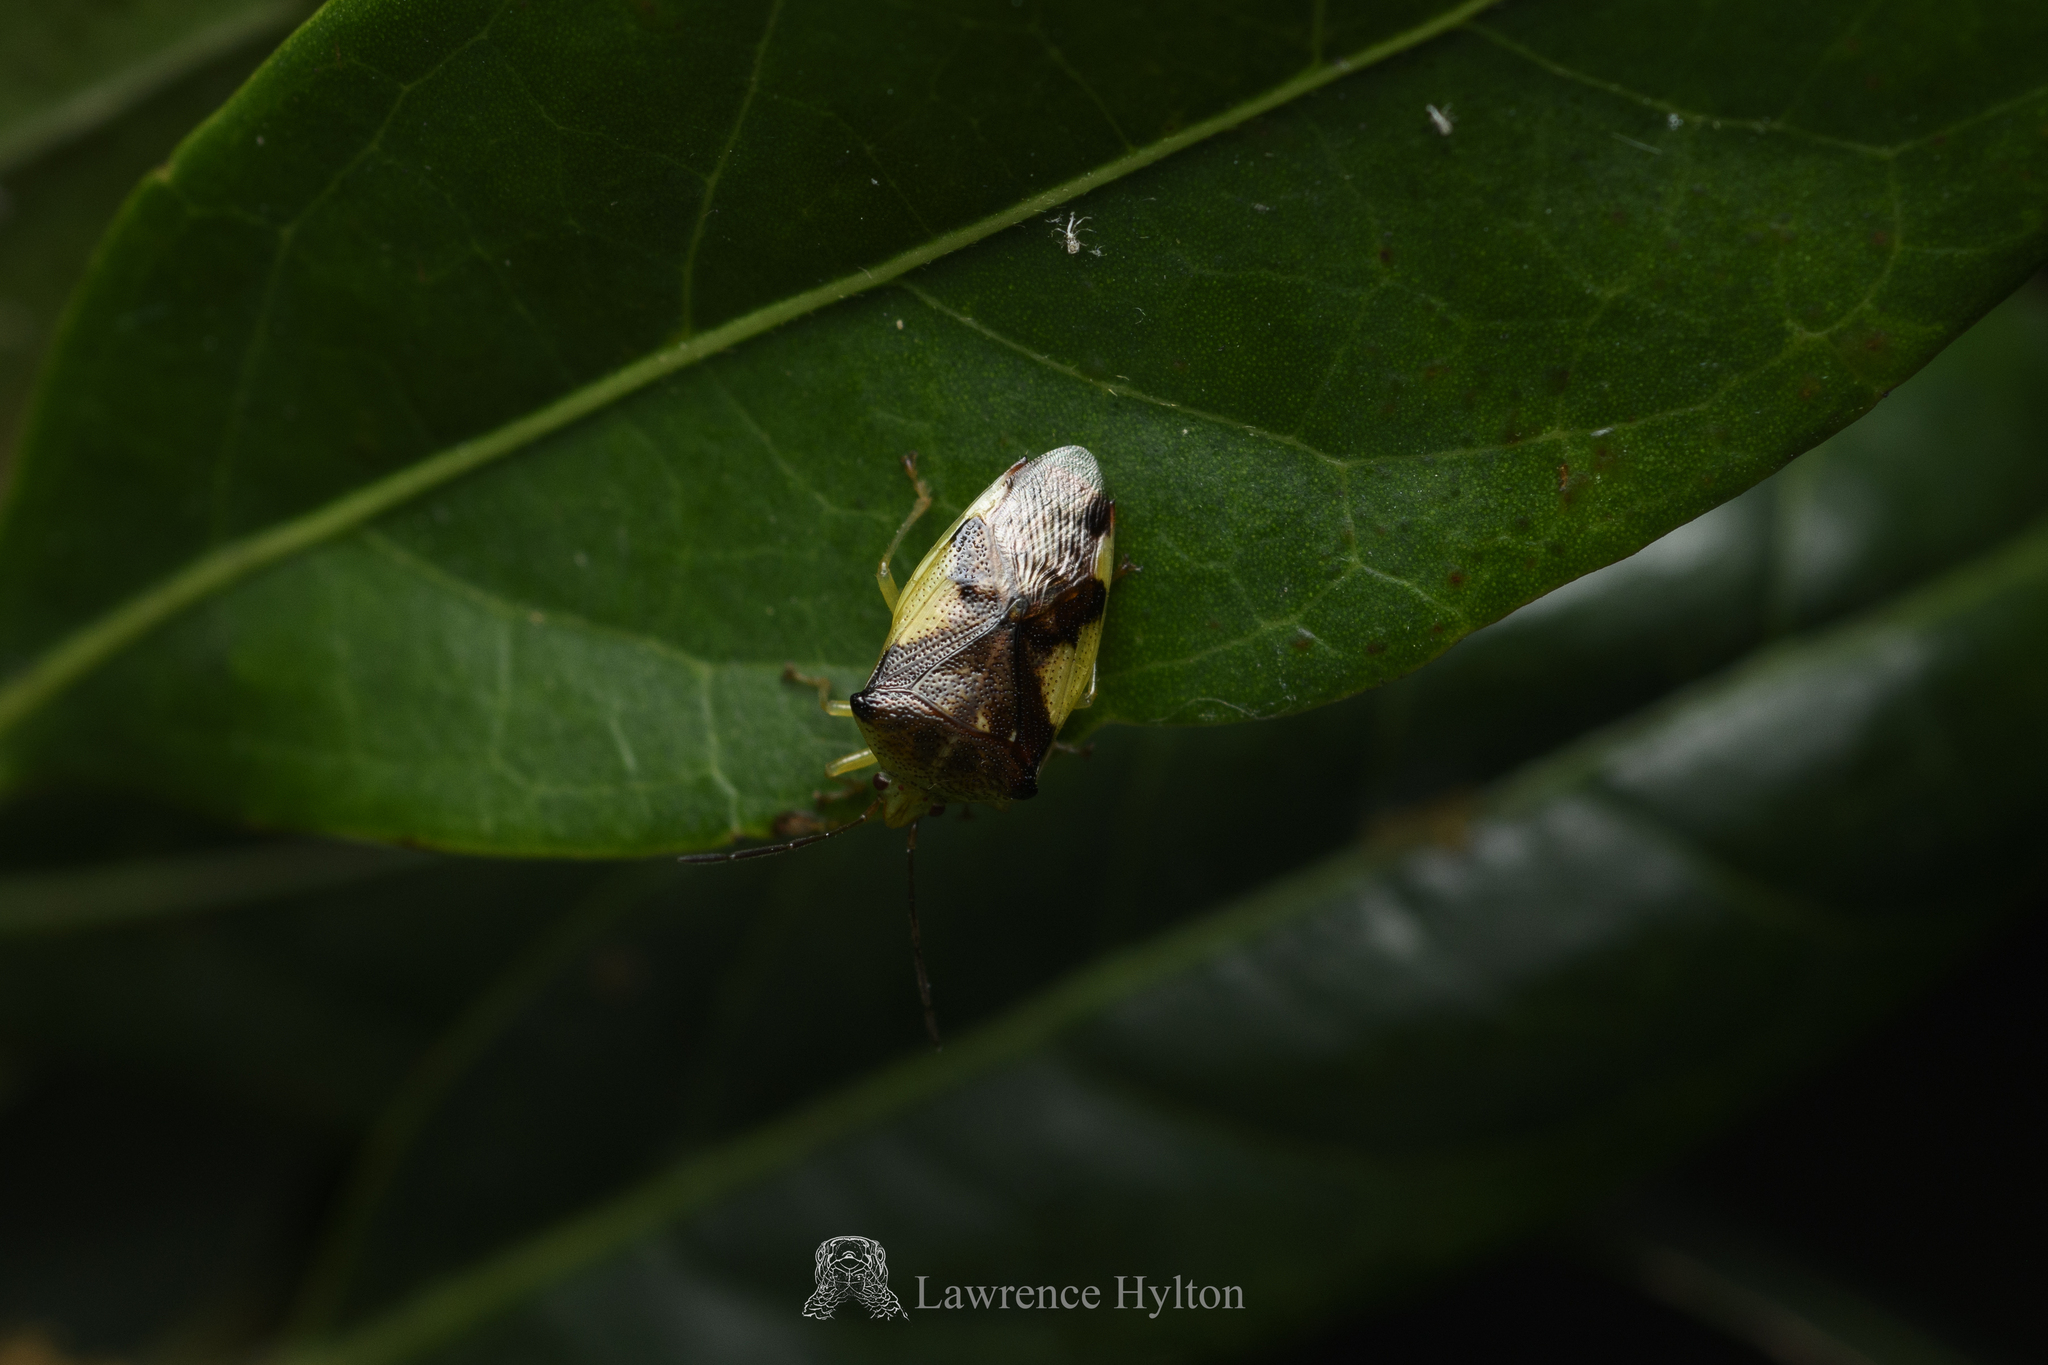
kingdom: Animalia
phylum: Arthropoda
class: Insecta
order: Hemiptera
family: Acanthosomatidae
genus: Elasmostethus
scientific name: Elasmostethus nubilus
